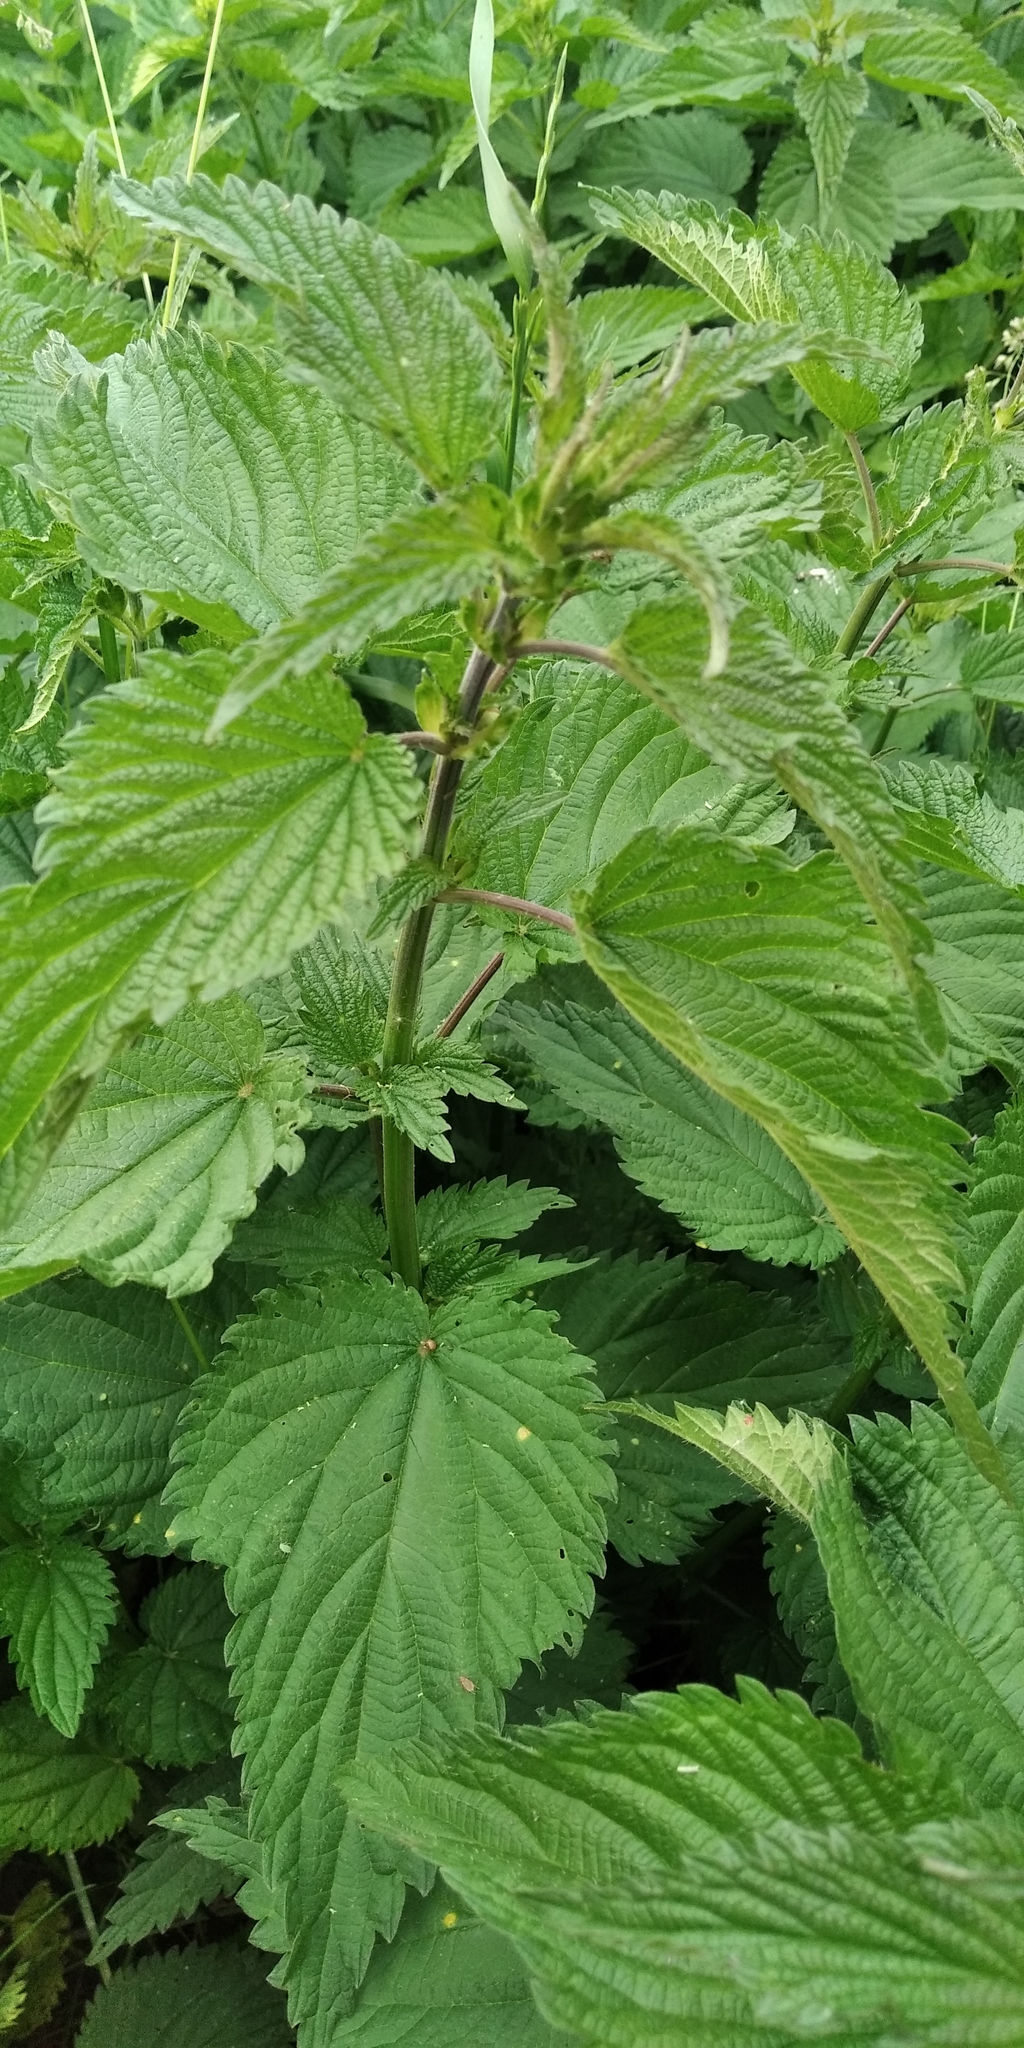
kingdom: Plantae
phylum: Tracheophyta
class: Magnoliopsida
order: Rosales
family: Urticaceae
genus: Urtica
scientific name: Urtica dioica
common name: Common nettle
